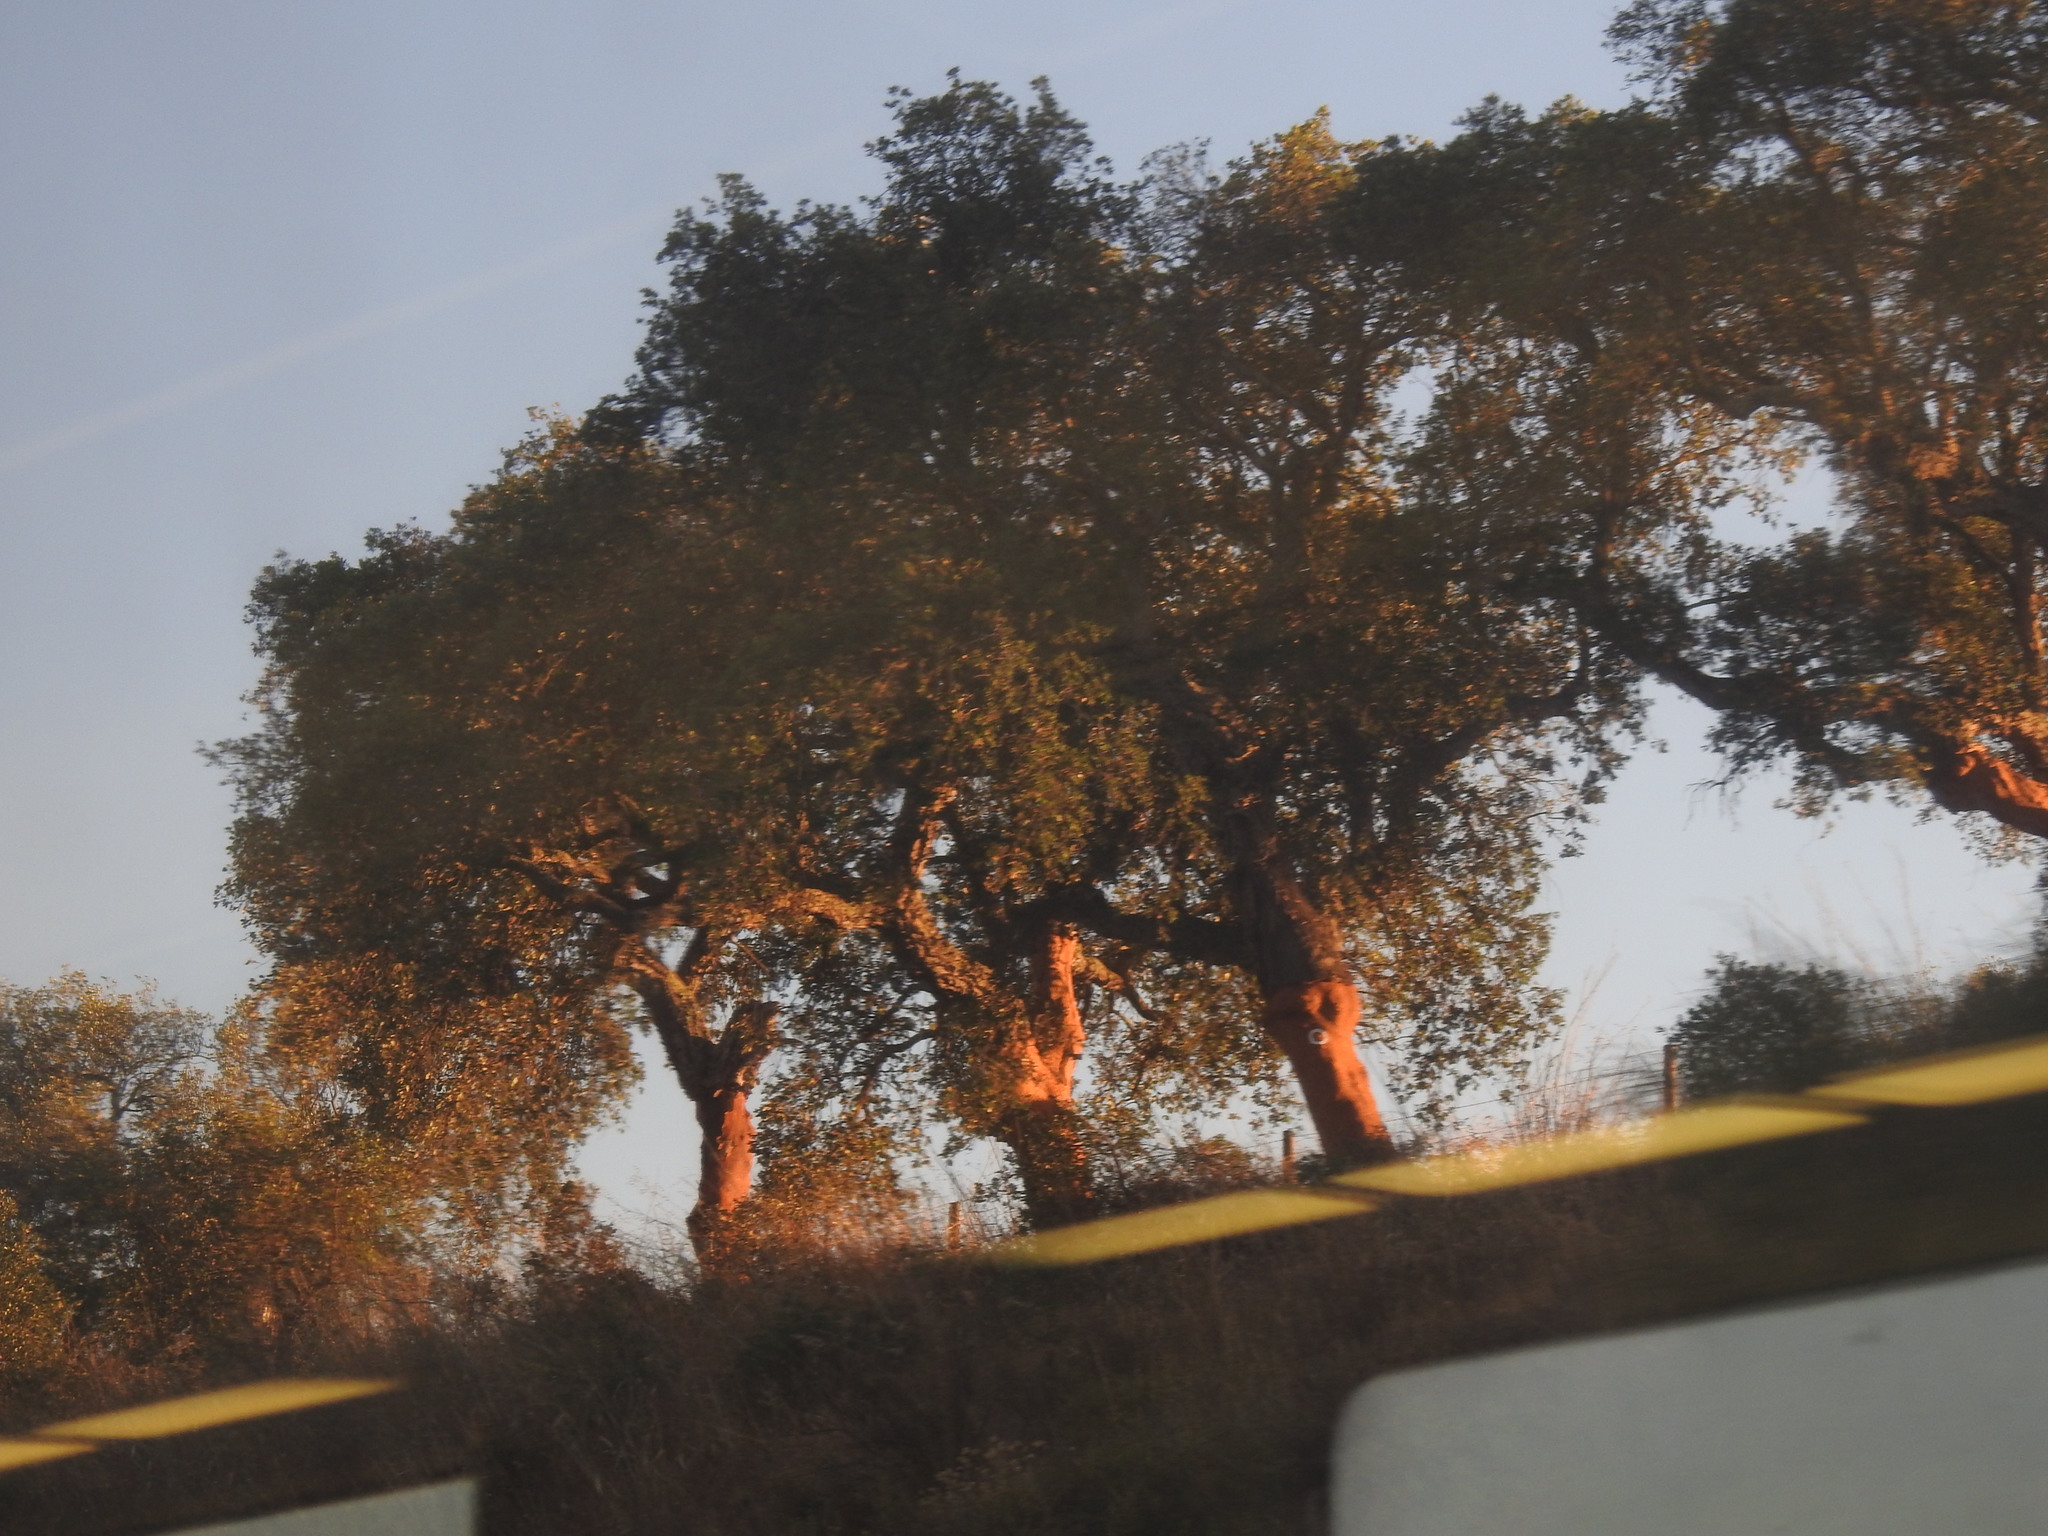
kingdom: Plantae
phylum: Tracheophyta
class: Magnoliopsida
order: Fagales
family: Fagaceae
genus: Quercus
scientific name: Quercus suber
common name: Cork oak
